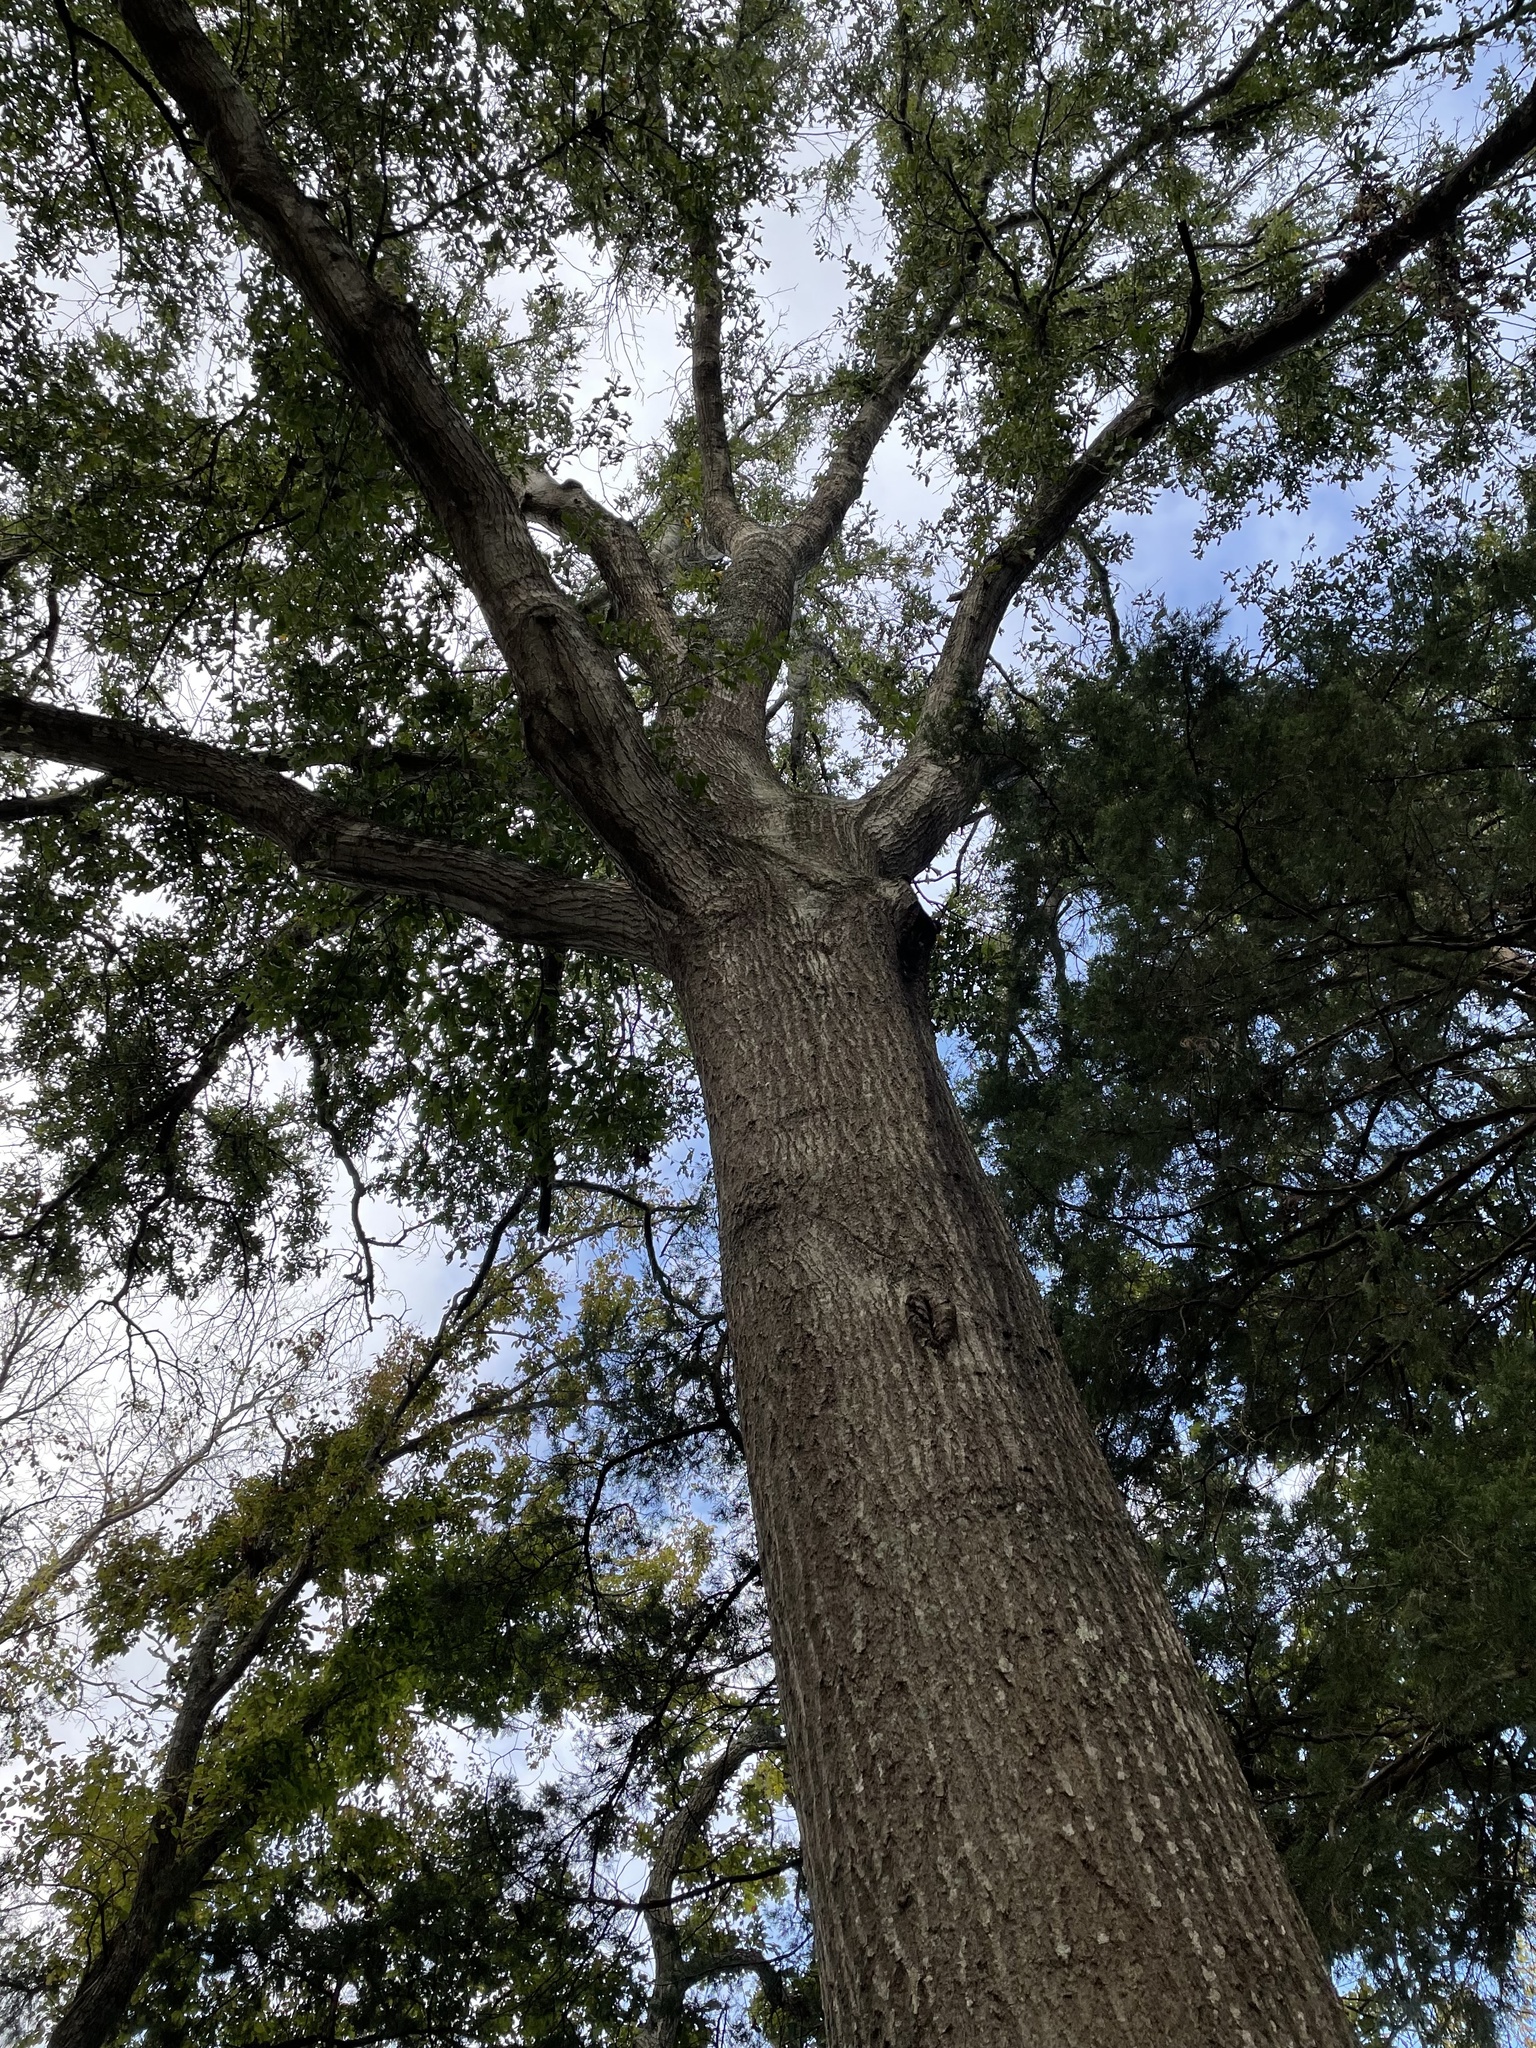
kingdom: Plantae
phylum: Tracheophyta
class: Magnoliopsida
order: Fagales
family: Fagaceae
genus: Quercus
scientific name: Quercus nigra
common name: Water oak
